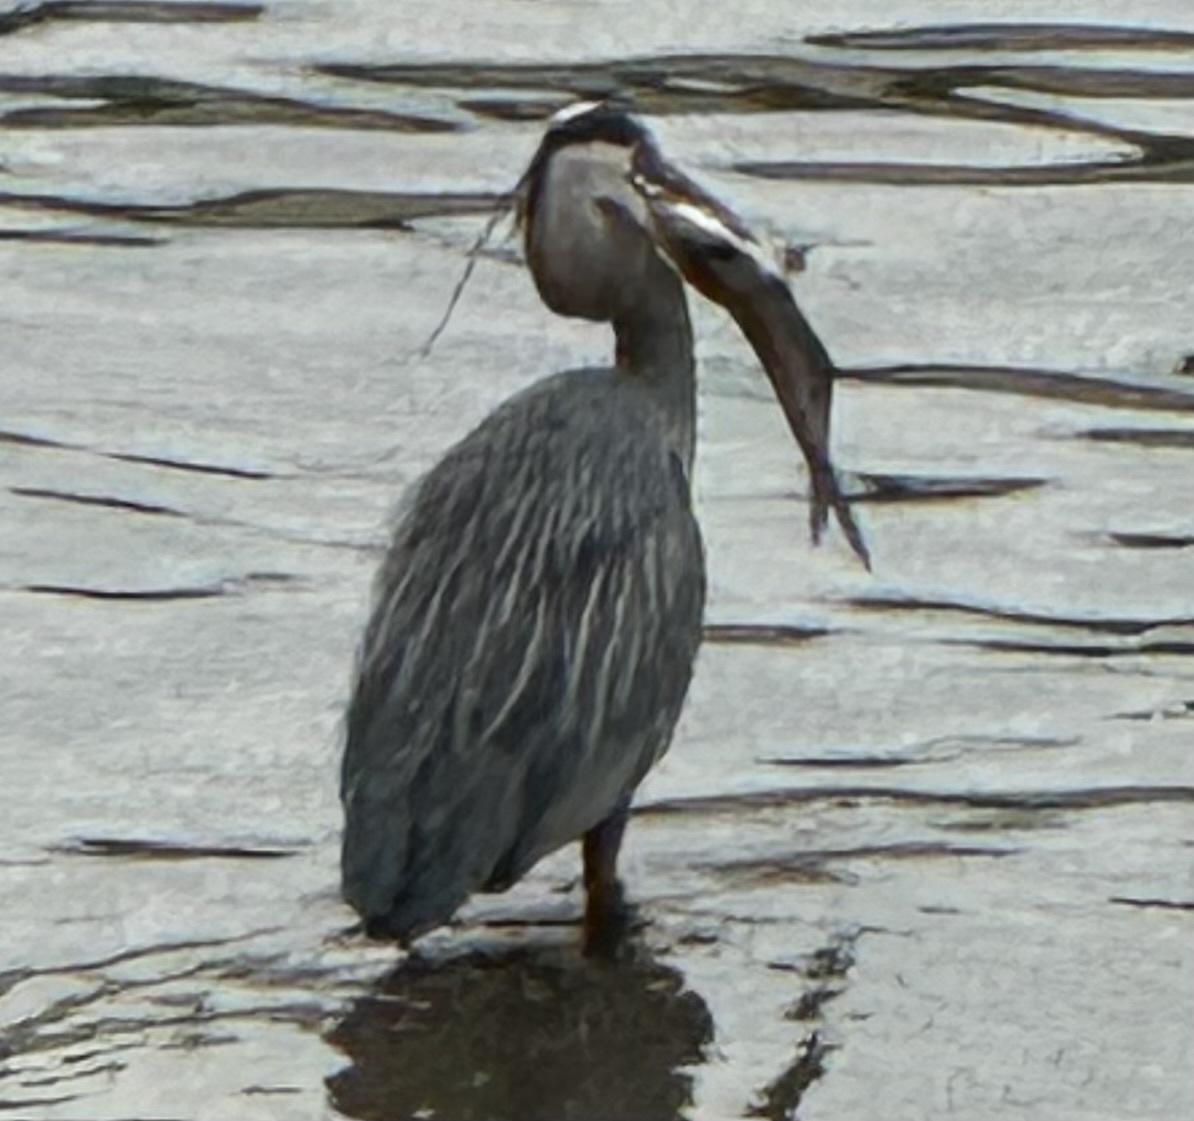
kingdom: Animalia
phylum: Chordata
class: Aves
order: Pelecaniformes
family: Ardeidae
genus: Ardea
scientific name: Ardea herodias
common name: Great blue heron
